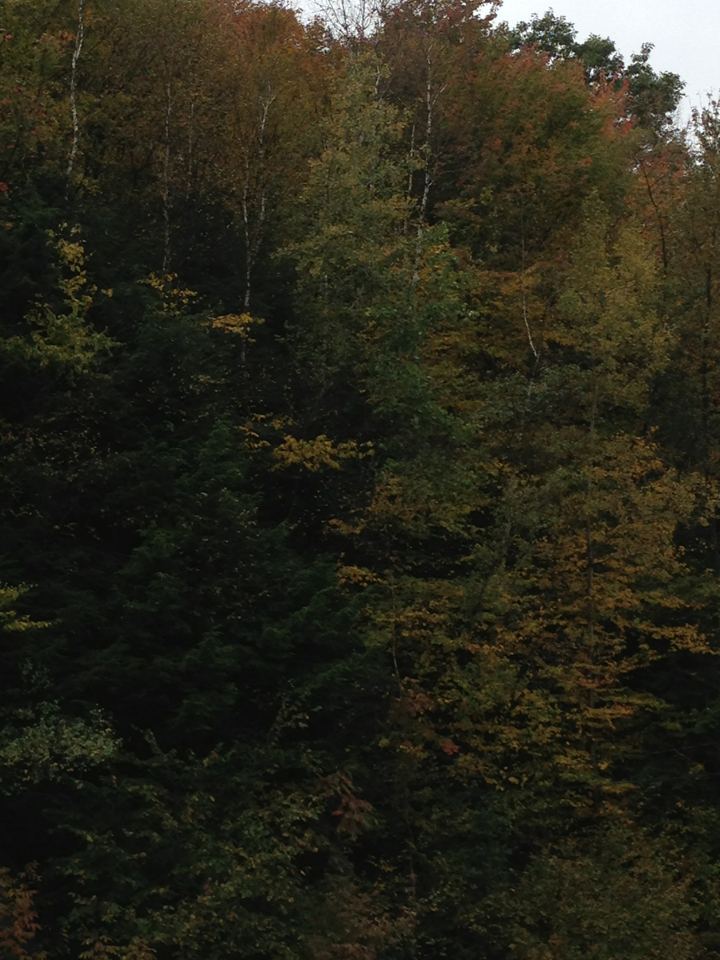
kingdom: Plantae
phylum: Tracheophyta
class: Magnoliopsida
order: Fagales
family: Betulaceae
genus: Betula
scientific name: Betula papyrifera
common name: Paper birch
